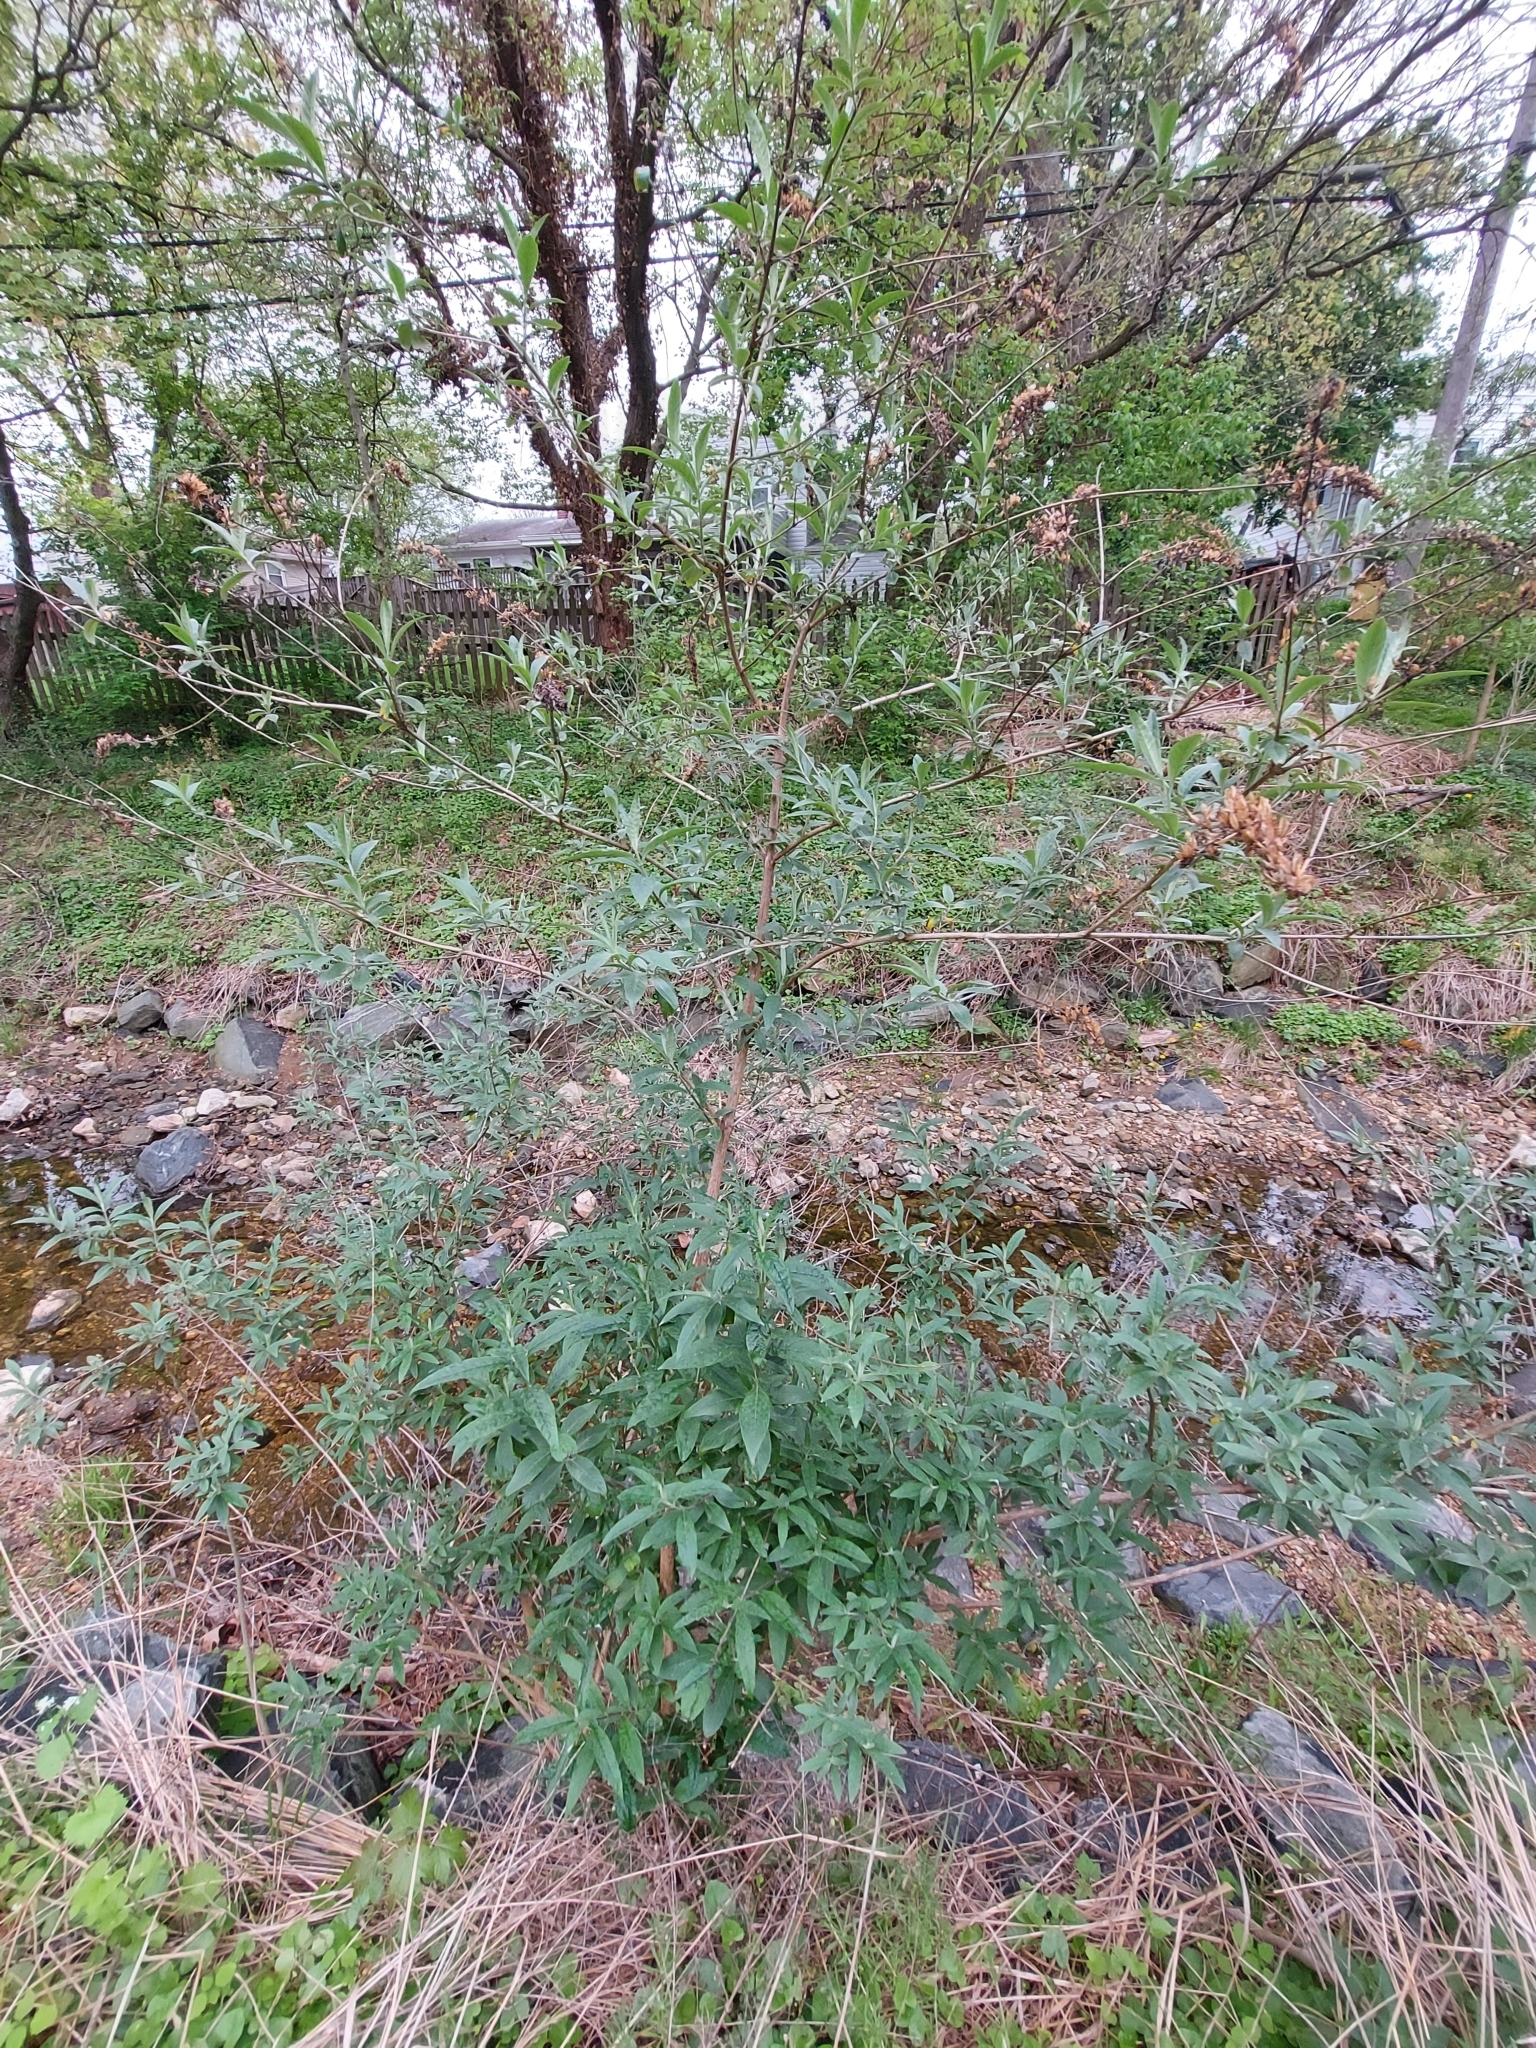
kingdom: Plantae
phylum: Tracheophyta
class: Magnoliopsida
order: Lamiales
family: Scrophulariaceae
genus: Buddleja
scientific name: Buddleja davidii
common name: Butterfly-bush
